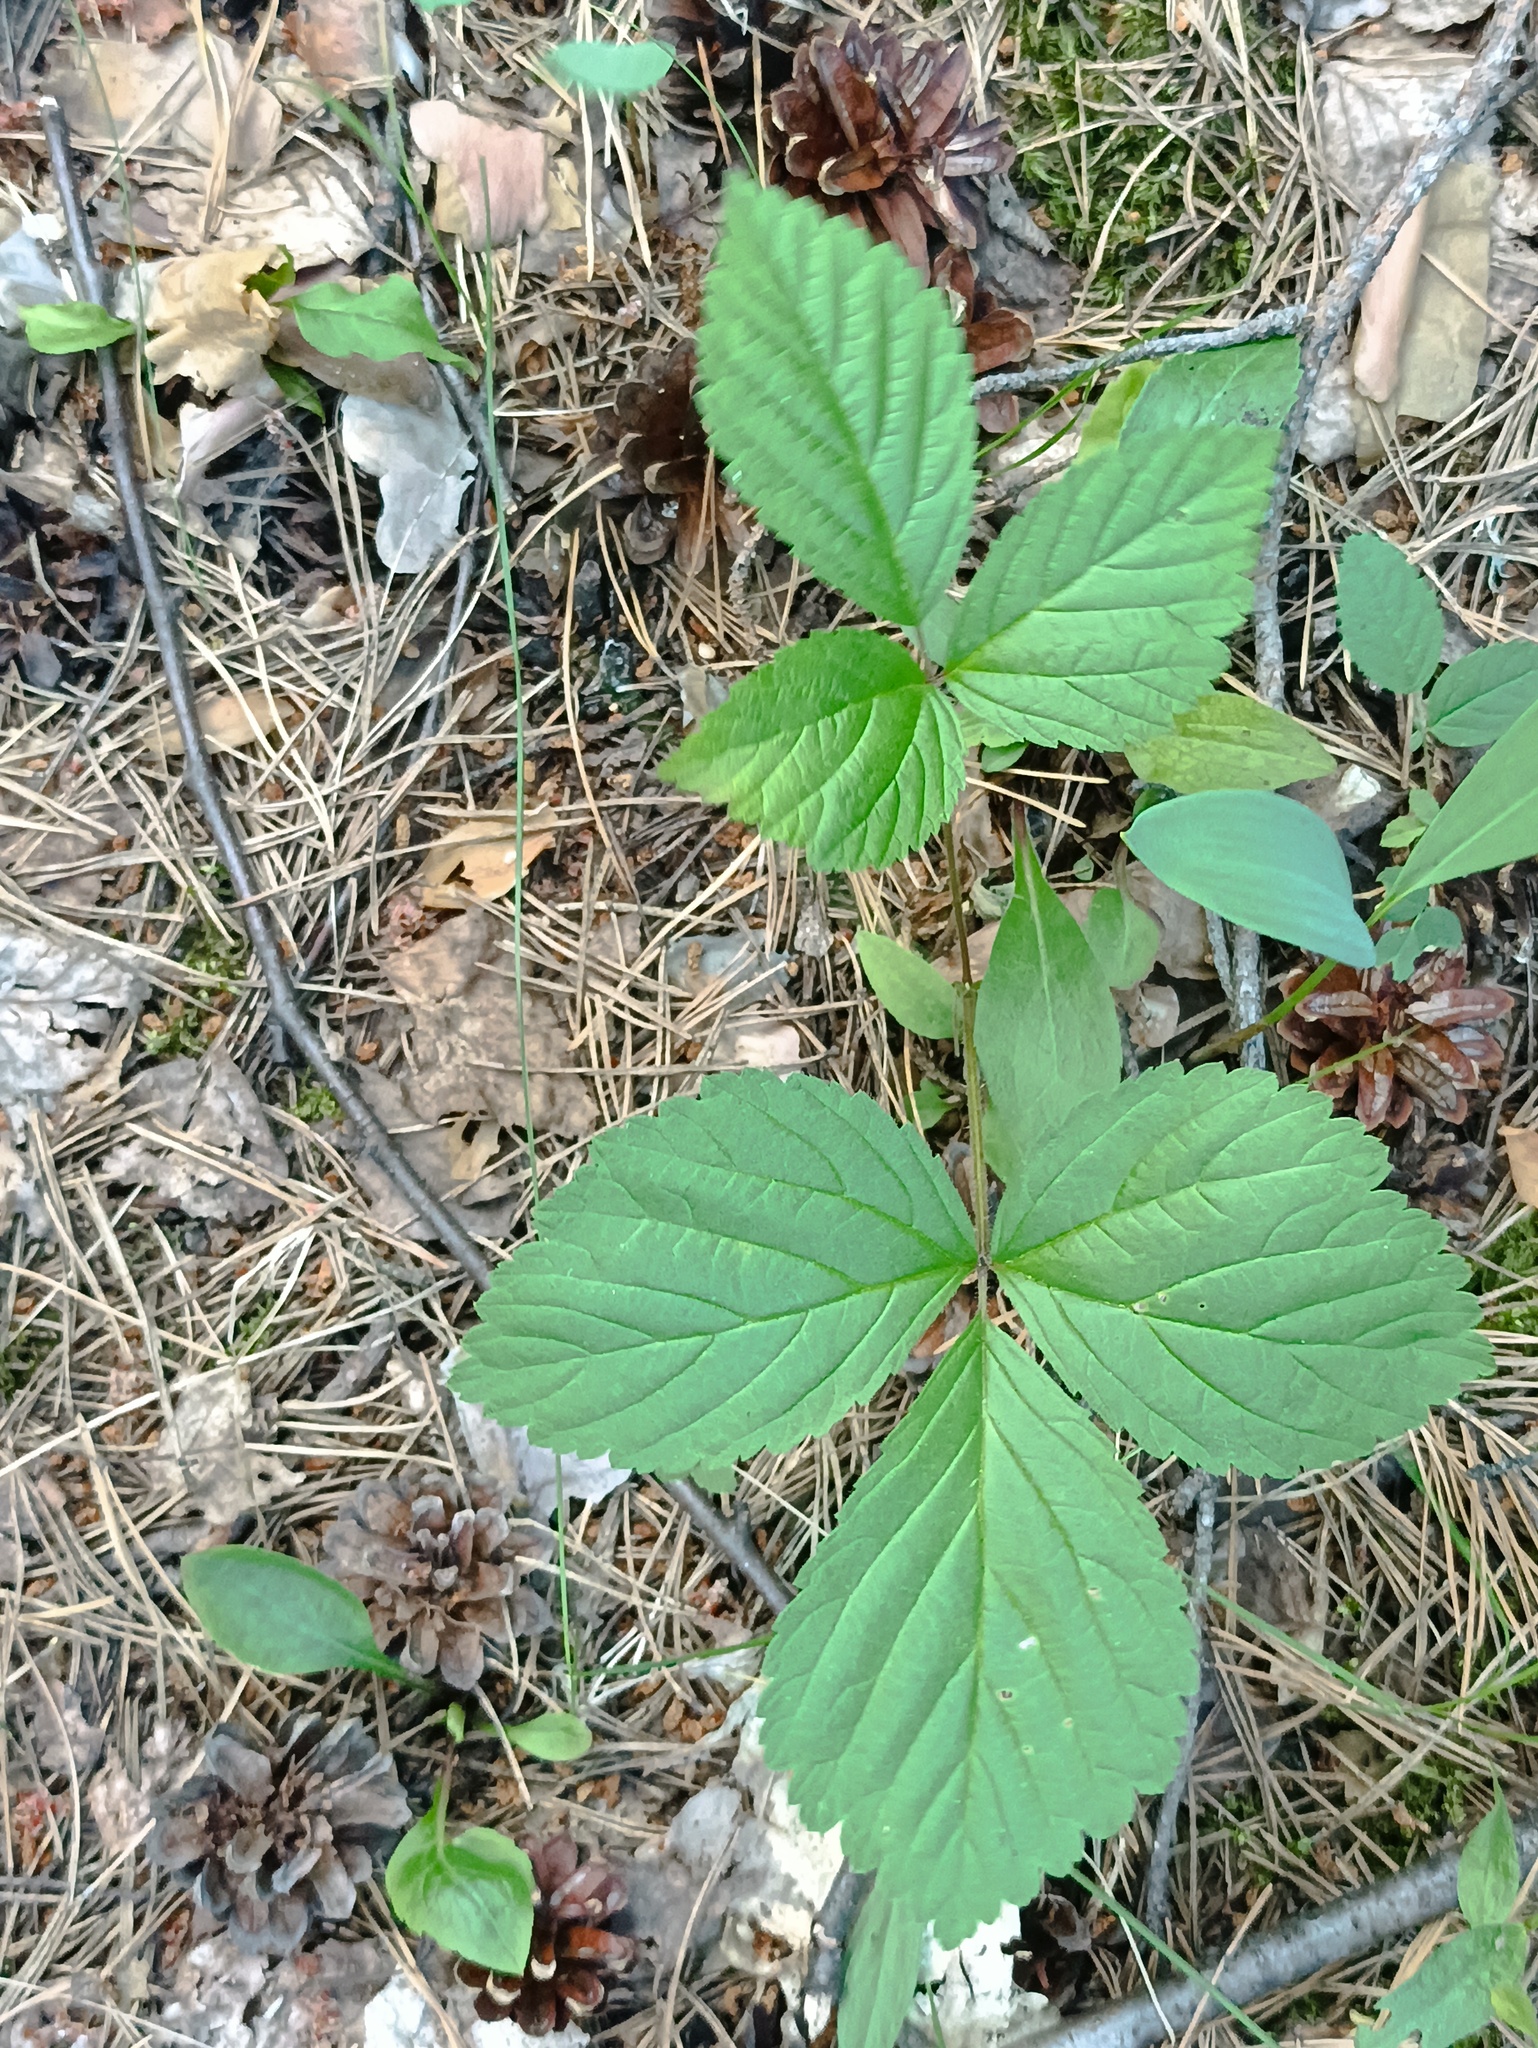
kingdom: Plantae
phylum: Tracheophyta
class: Magnoliopsida
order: Rosales
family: Rosaceae
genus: Rubus
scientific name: Rubus saxatilis
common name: Stone bramble
